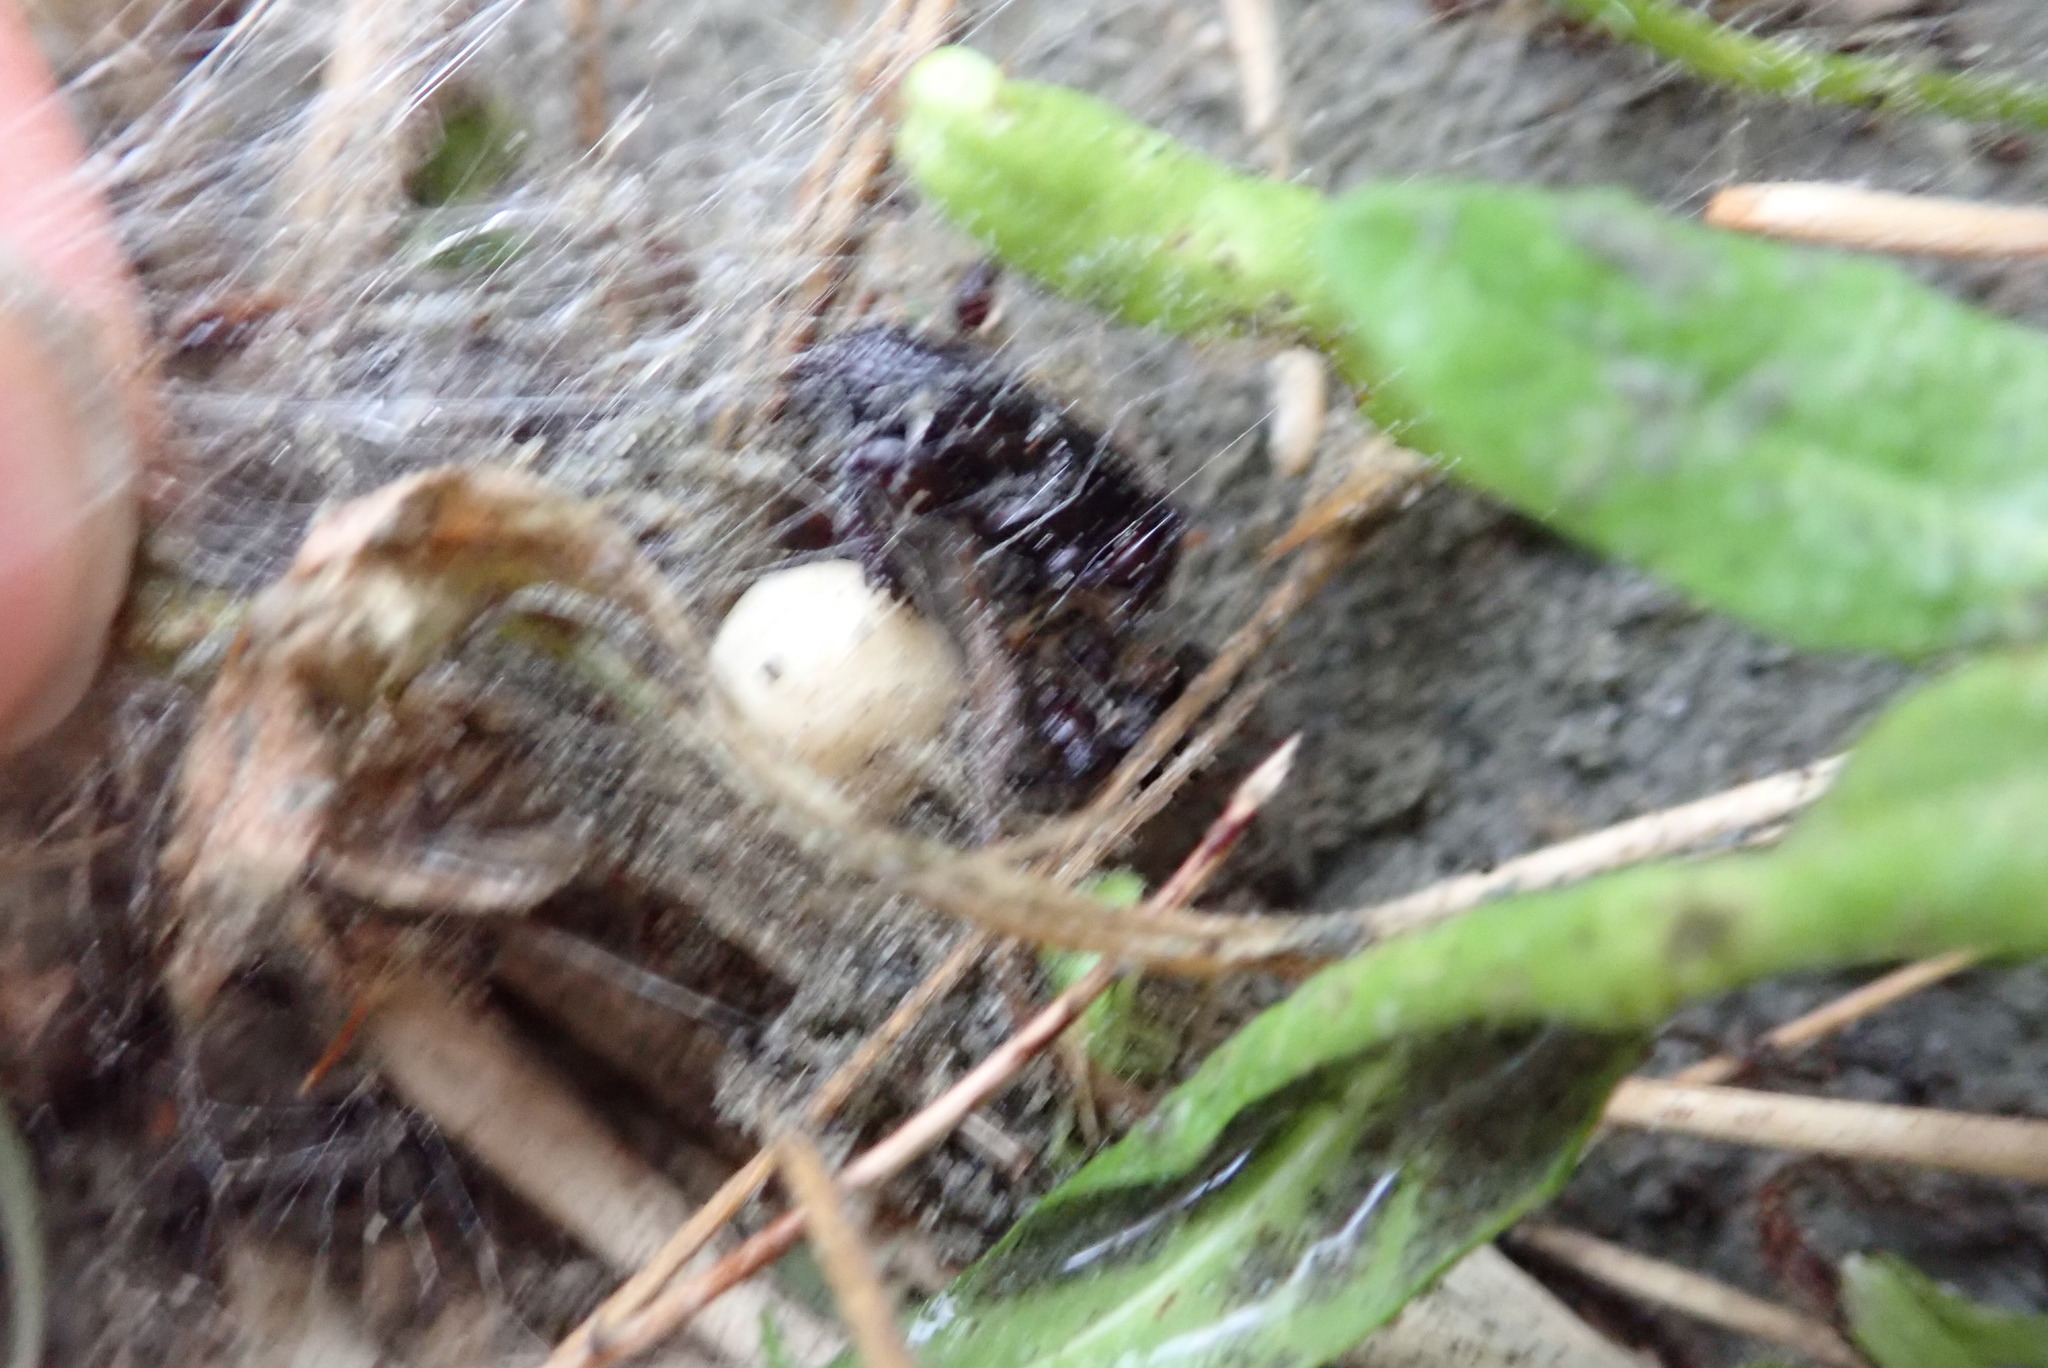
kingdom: Animalia
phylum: Arthropoda
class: Arachnida
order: Araneae
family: Theridiidae
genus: Latrodectus
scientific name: Latrodectus katipo
